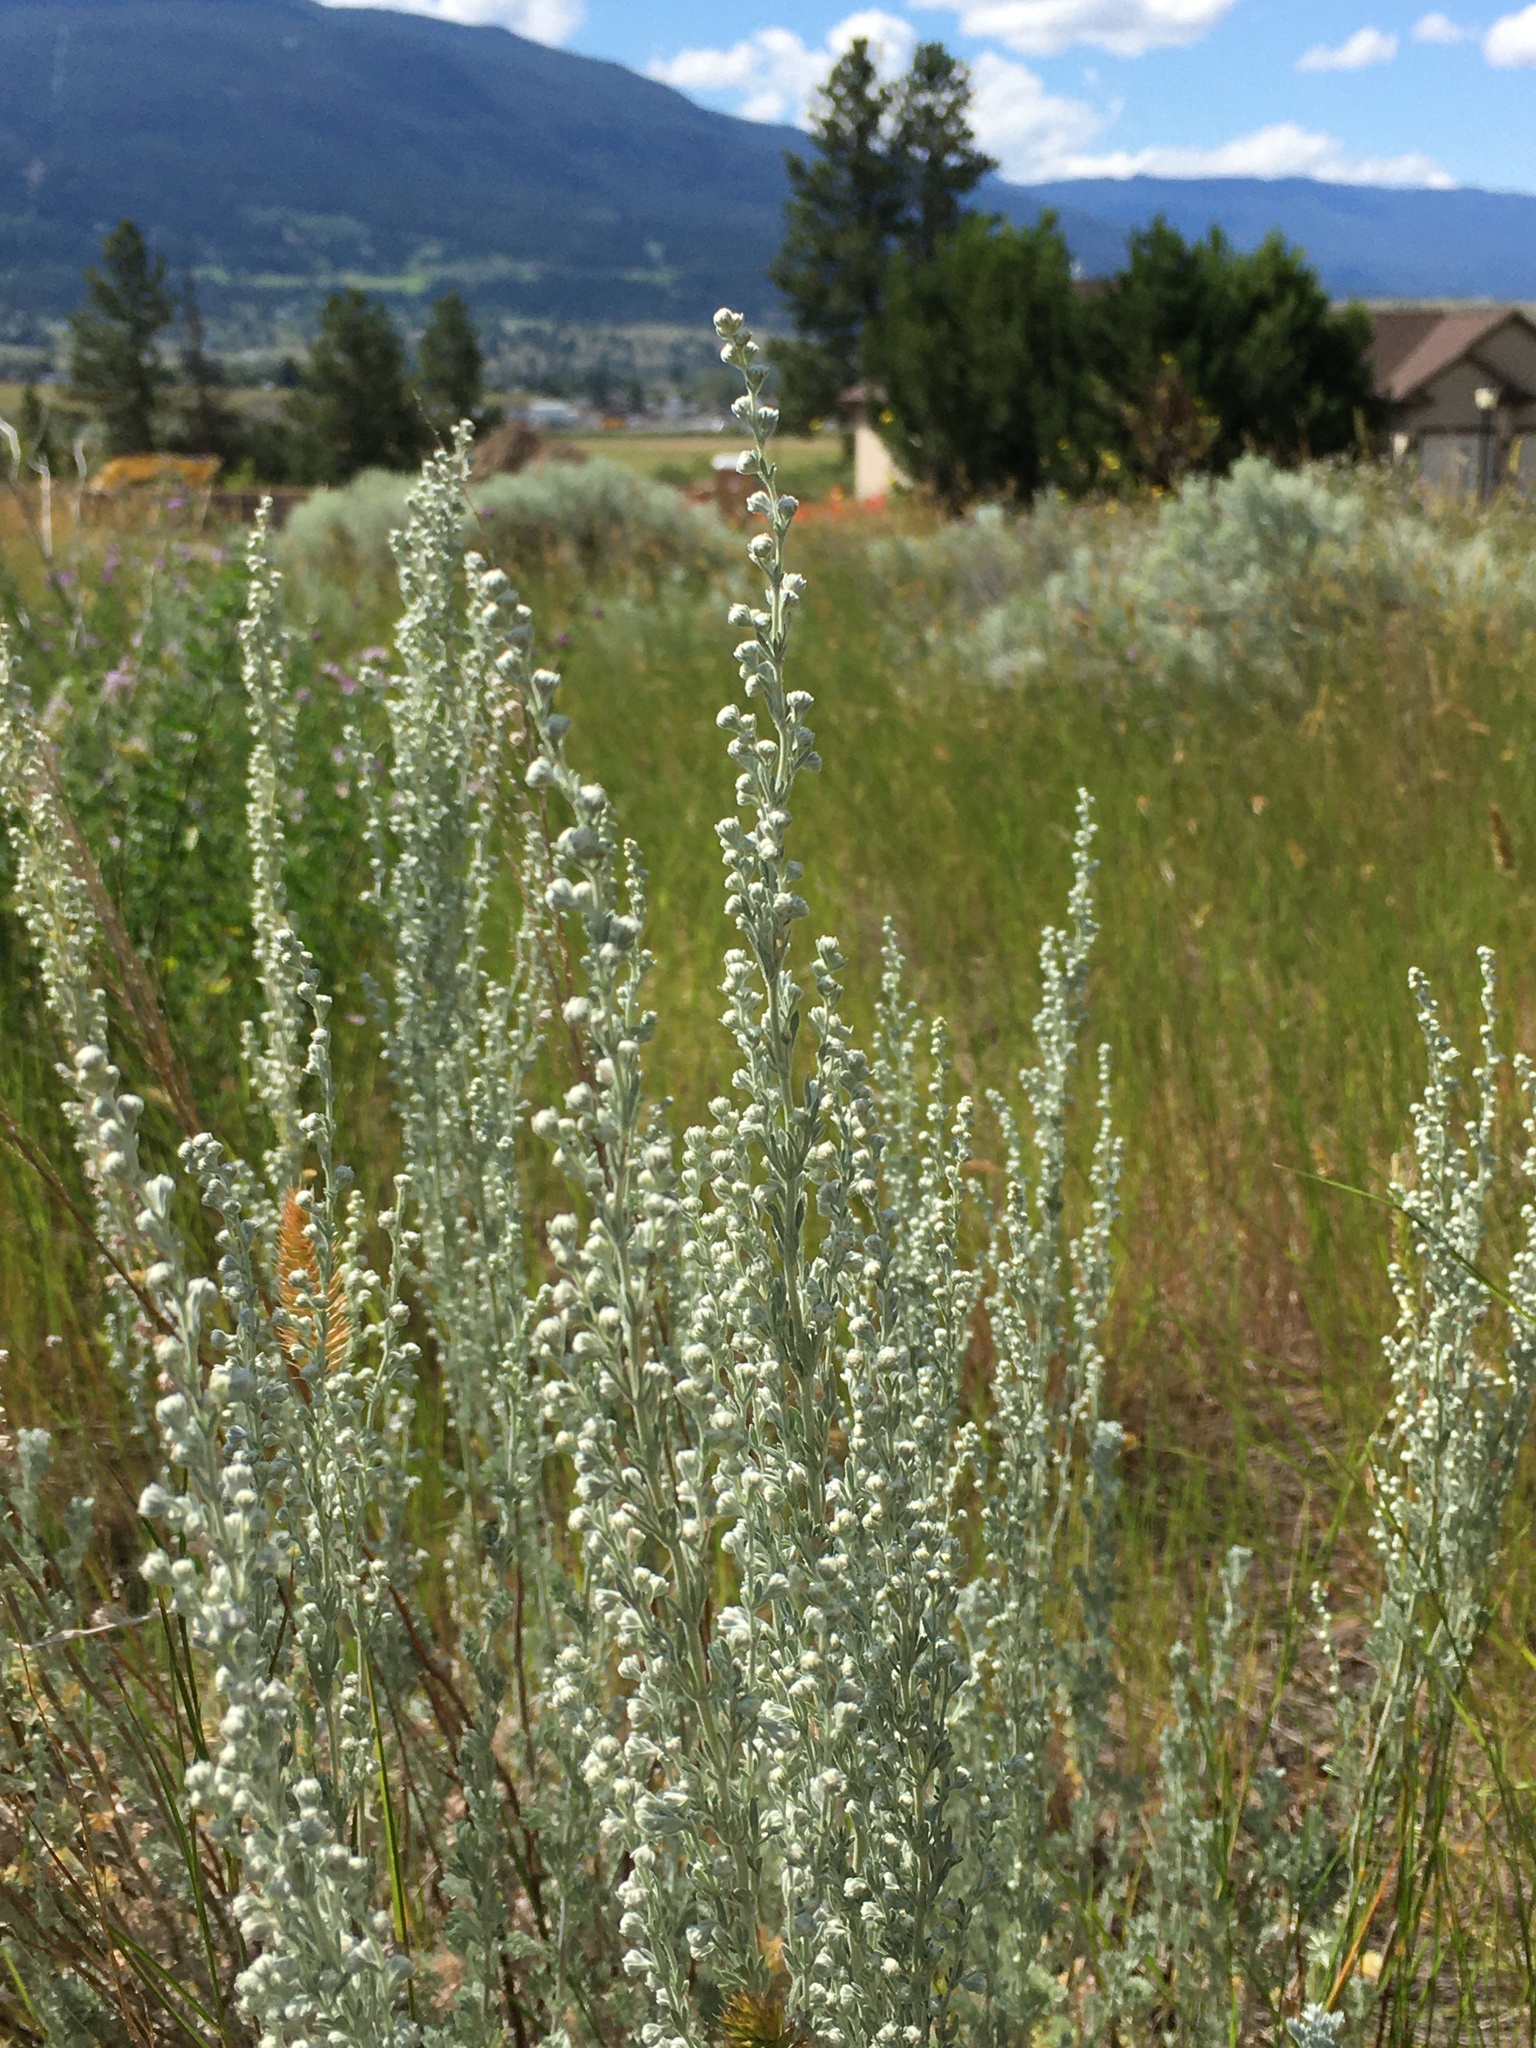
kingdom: Plantae
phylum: Tracheophyta
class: Magnoliopsida
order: Asterales
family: Asteraceae
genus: Artemisia
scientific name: Artemisia frigida
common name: Prairie sagewort
